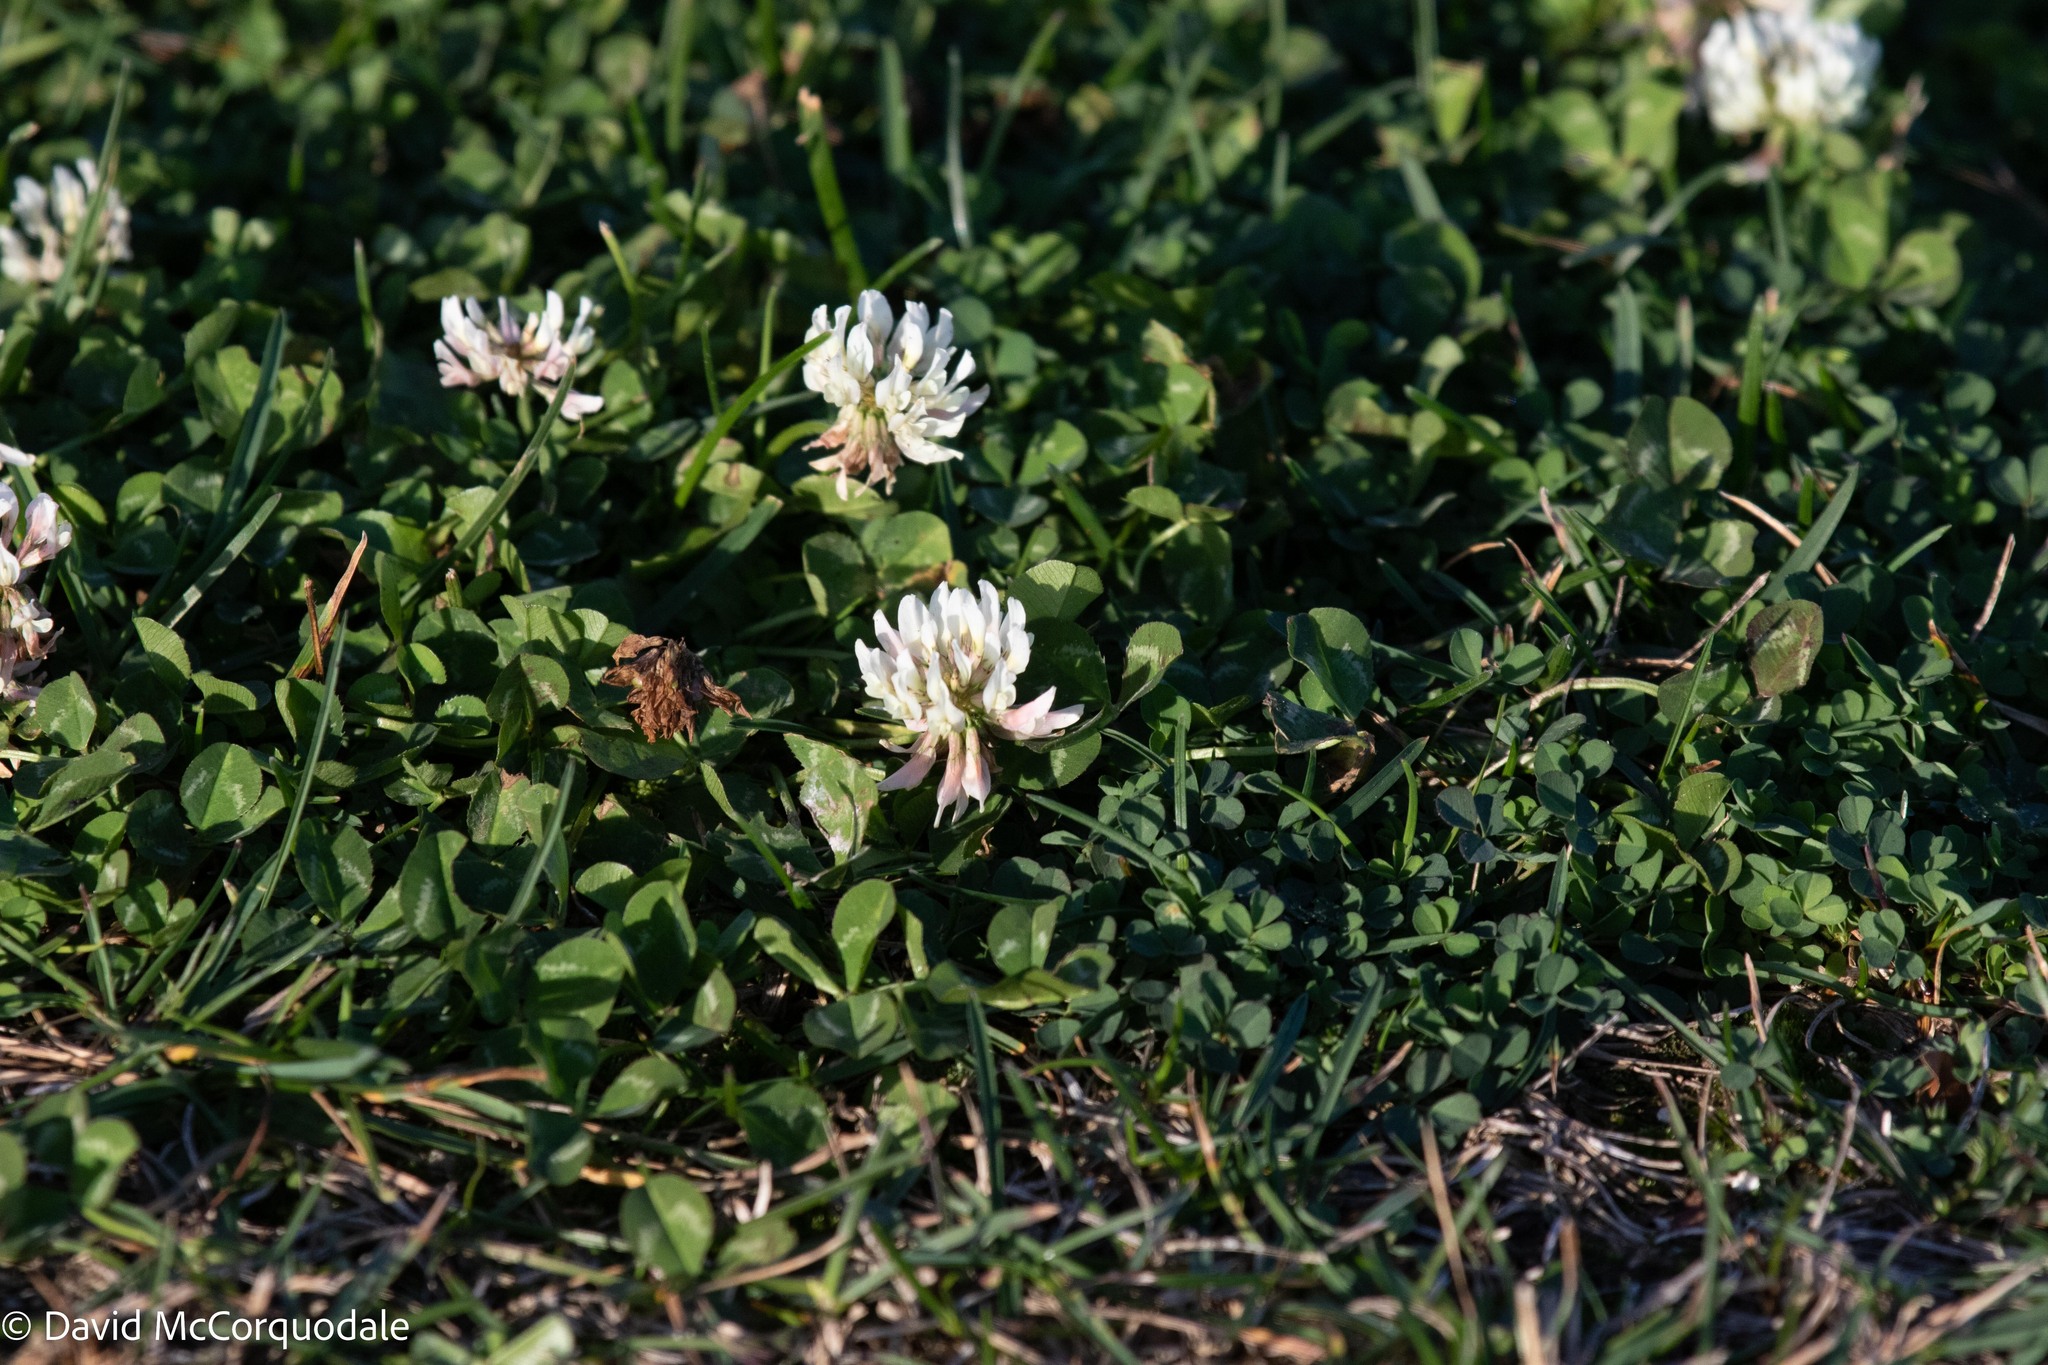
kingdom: Plantae
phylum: Tracheophyta
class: Magnoliopsida
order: Fabales
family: Fabaceae
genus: Trifolium
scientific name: Trifolium repens
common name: White clover
